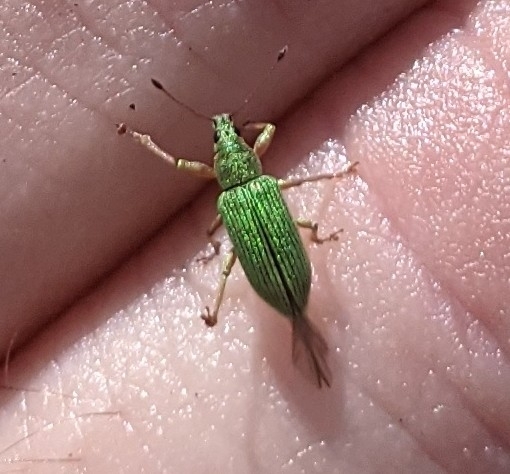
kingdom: Animalia
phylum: Arthropoda
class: Insecta
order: Coleoptera
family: Curculionidae
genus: Polydrusus
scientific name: Polydrusus formosus
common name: Weevil
